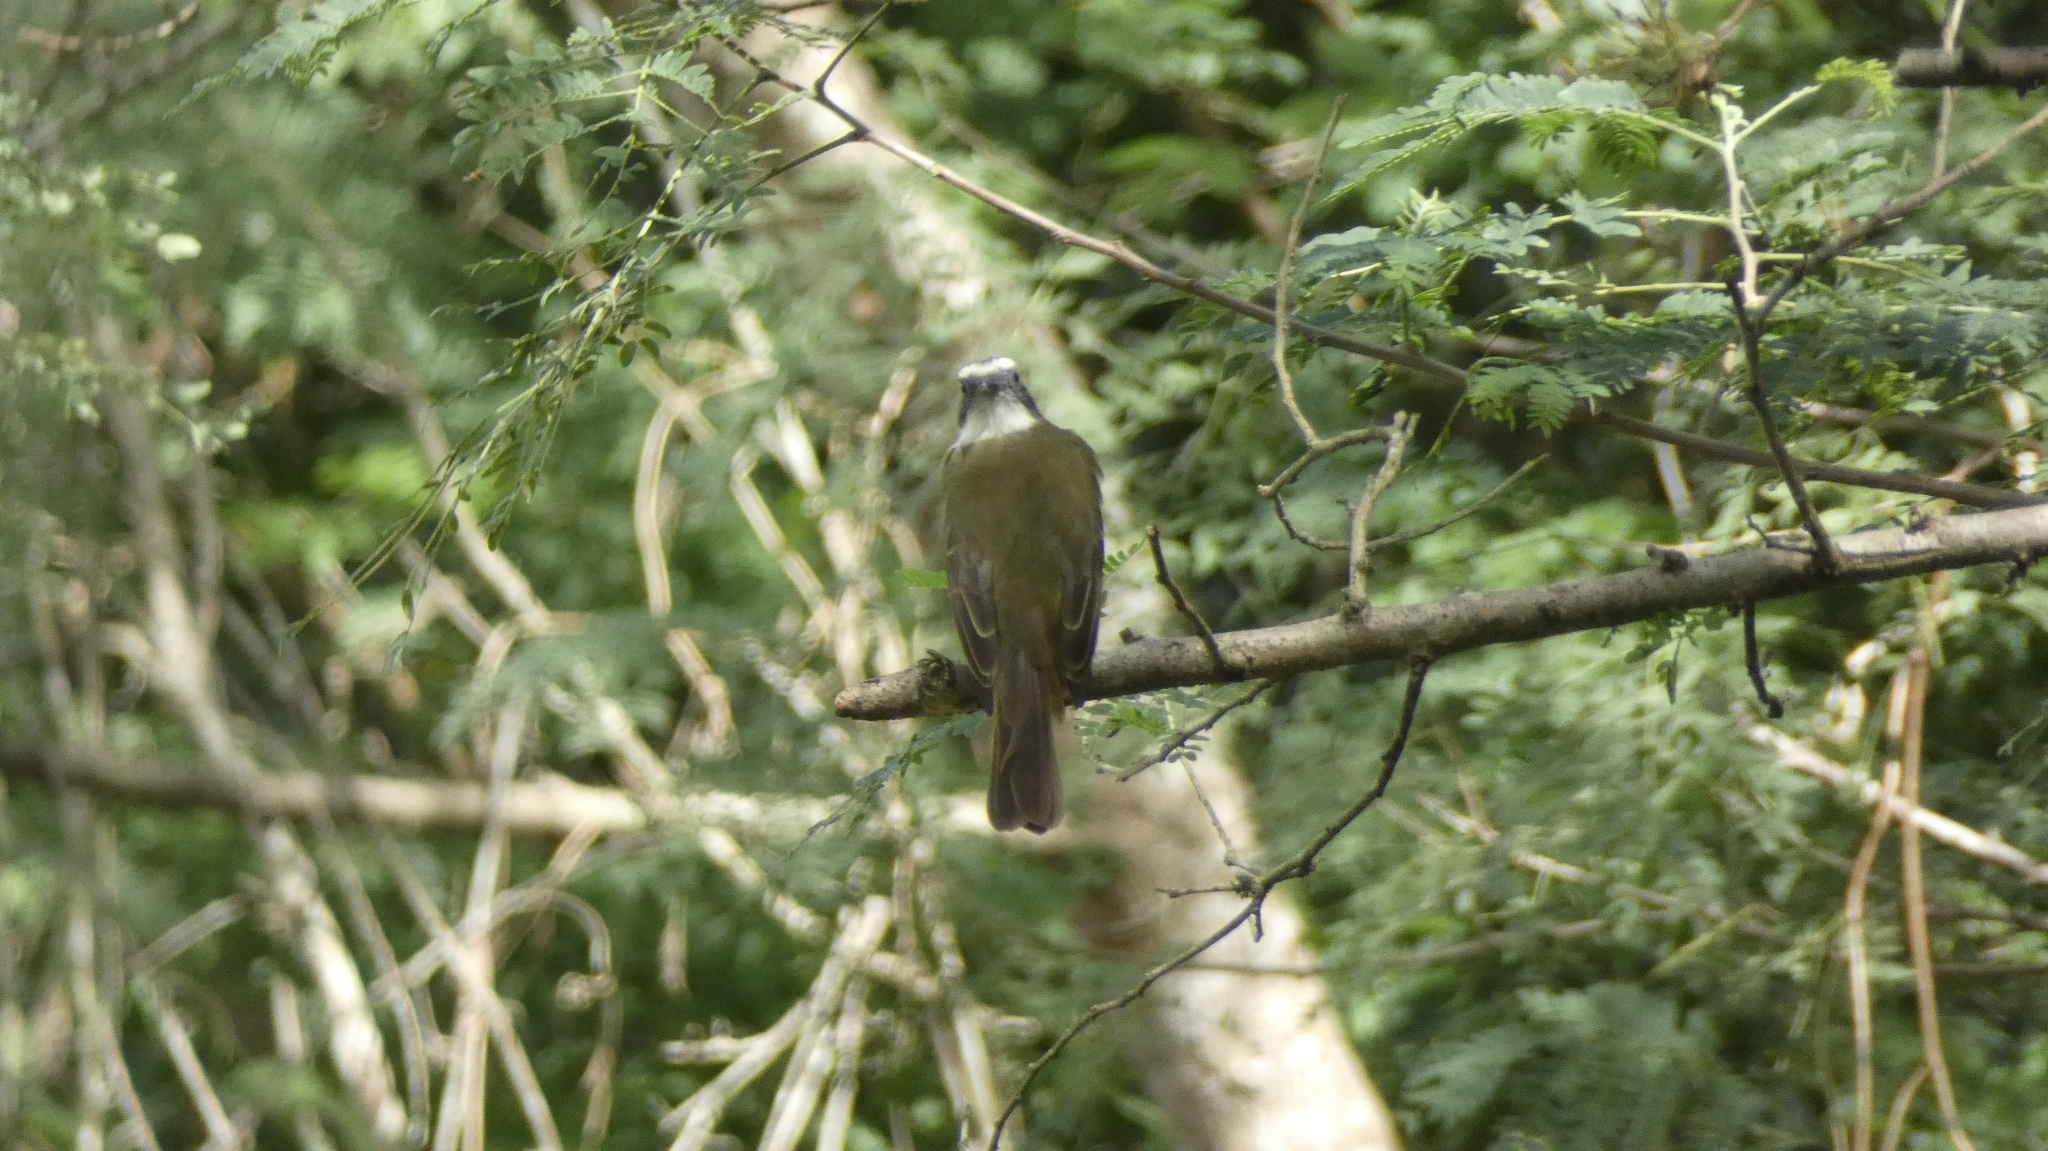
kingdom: Animalia
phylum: Chordata
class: Aves
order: Passeriformes
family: Tyrannidae
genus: Myiozetetes
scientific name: Myiozetetes similis
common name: Social flycatcher
